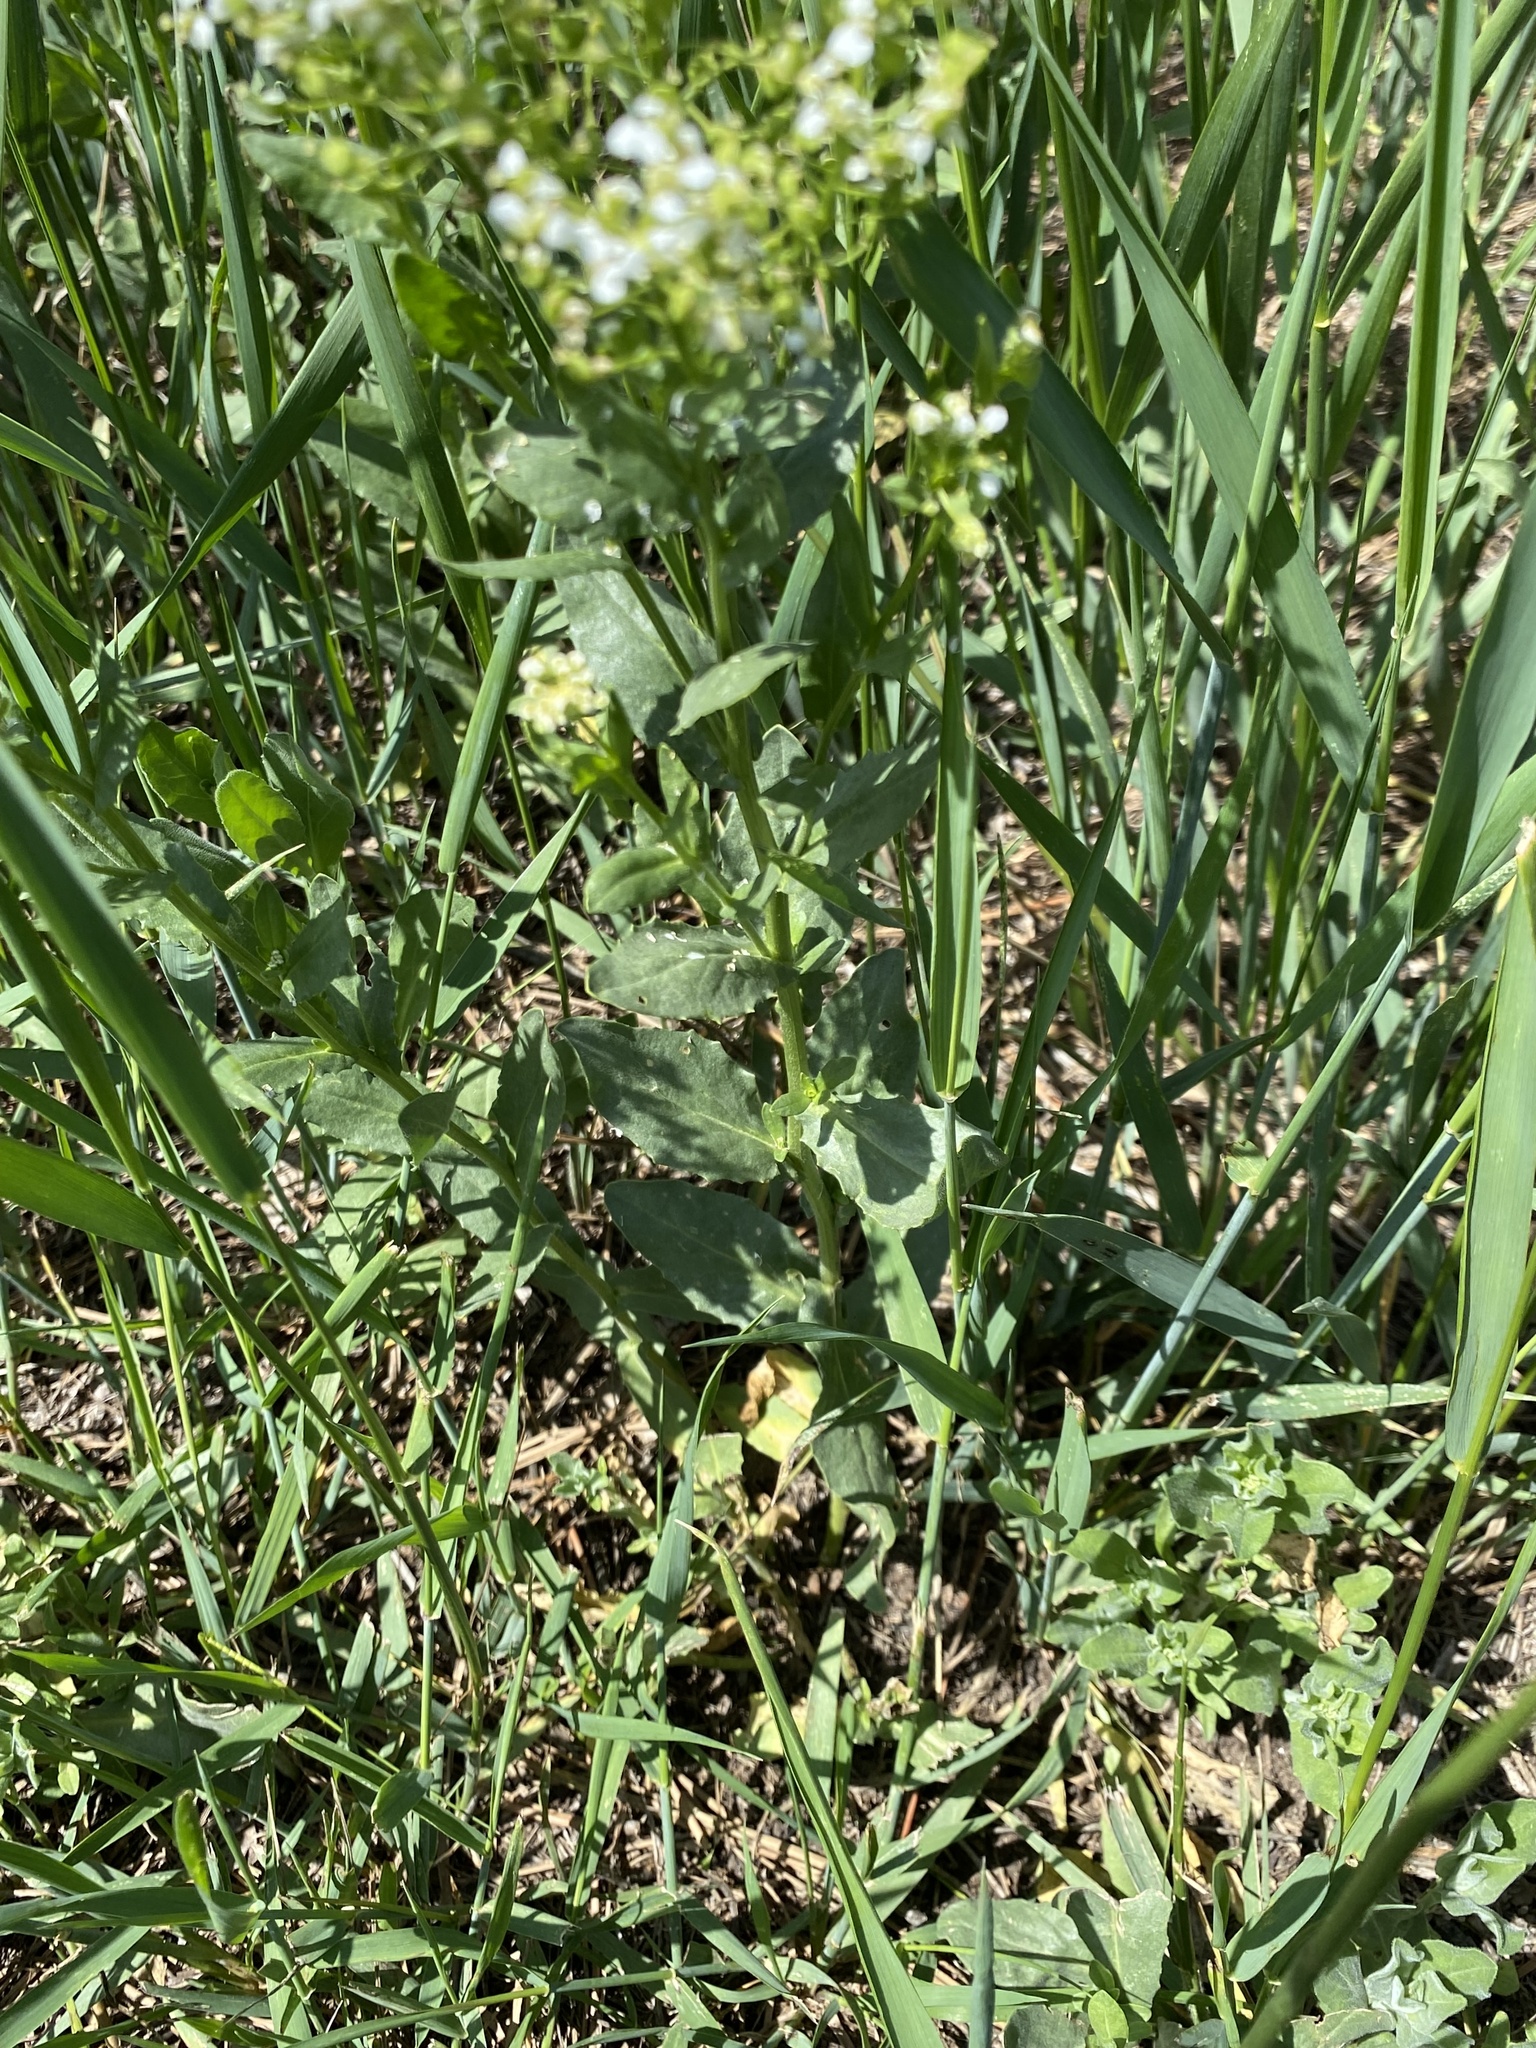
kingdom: Plantae
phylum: Tracheophyta
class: Magnoliopsida
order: Brassicales
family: Brassicaceae
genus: Lepidium
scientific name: Lepidium draba
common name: Hoary cress
